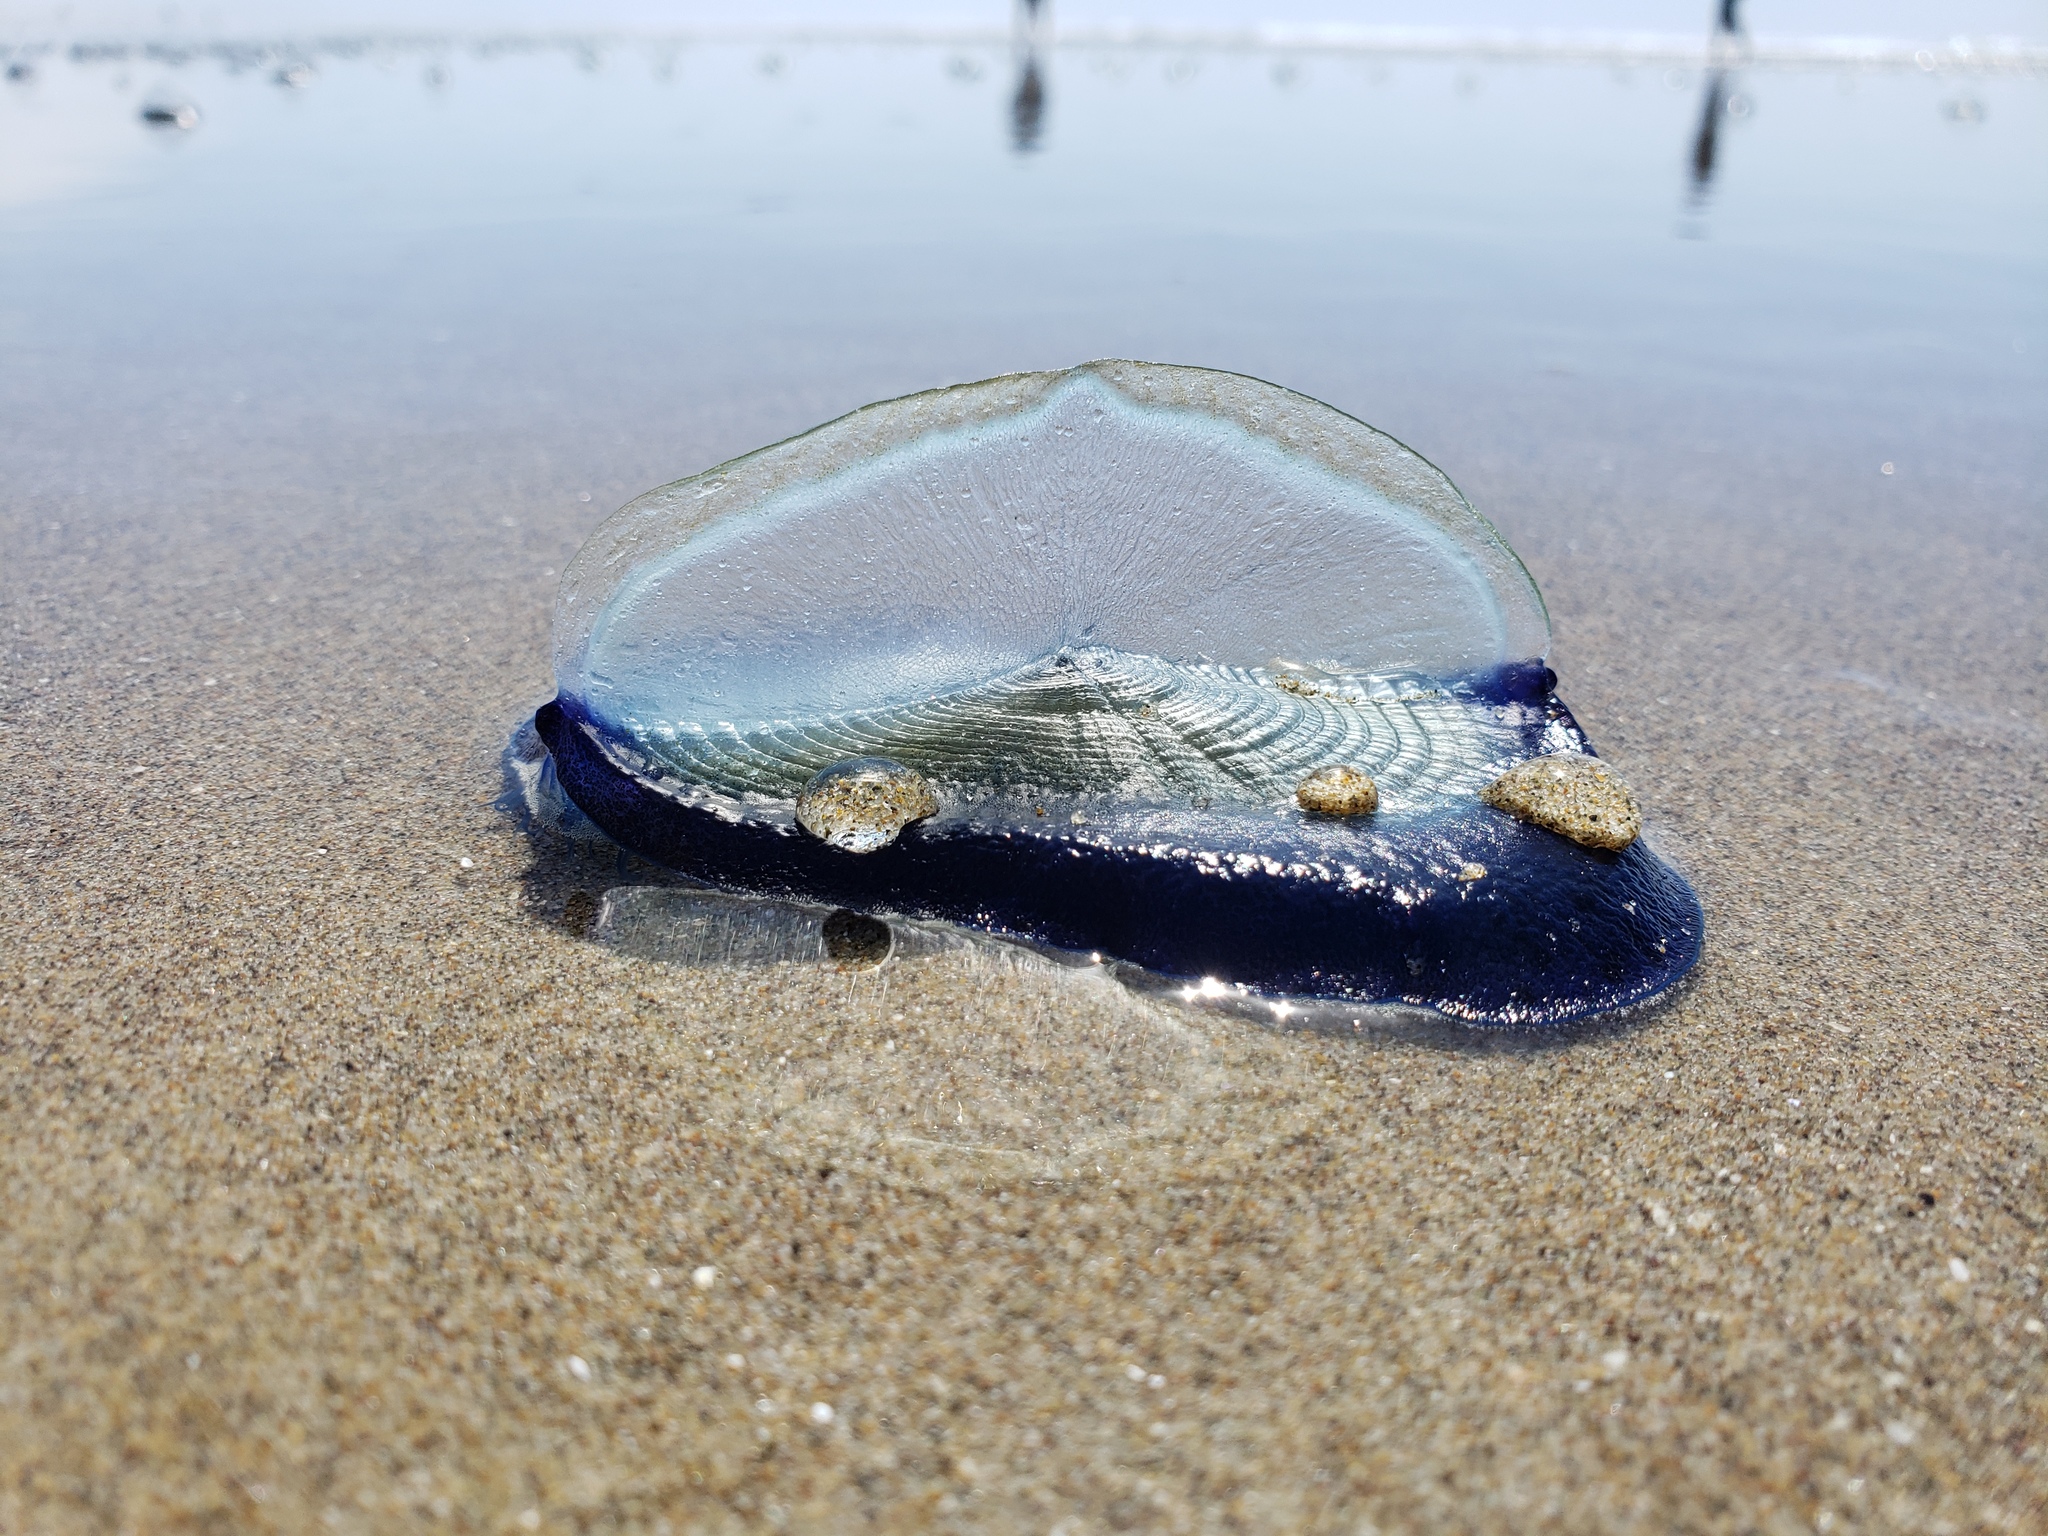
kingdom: Animalia
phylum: Cnidaria
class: Hydrozoa
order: Anthoathecata
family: Porpitidae
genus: Velella
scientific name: Velella velella
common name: By-the-wind-sailor
